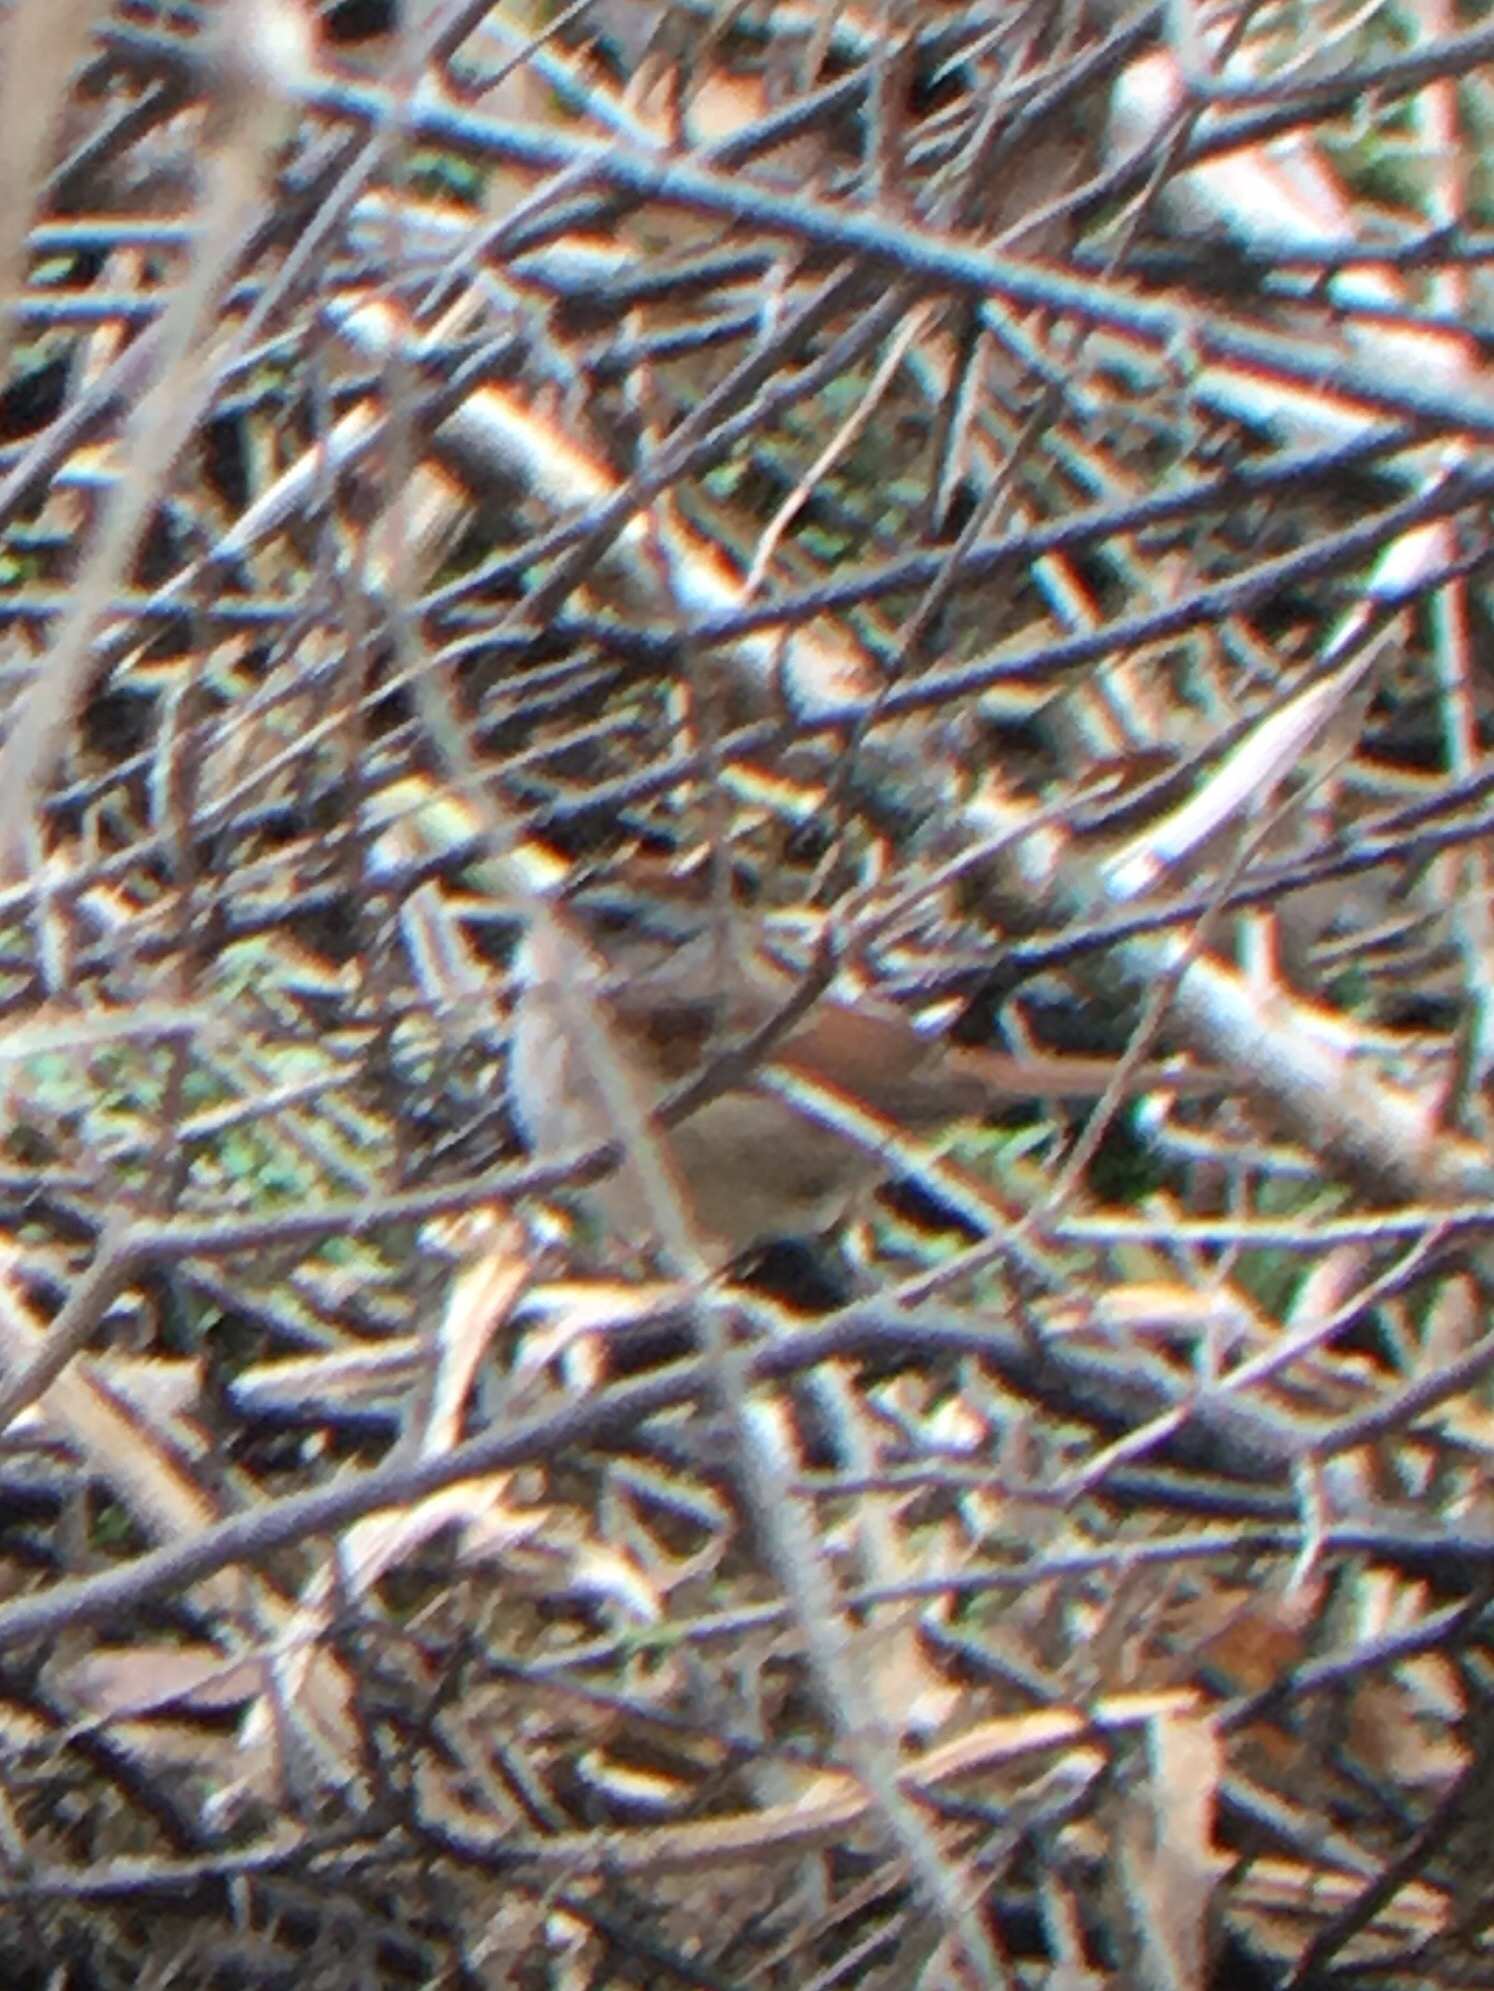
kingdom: Animalia
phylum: Chordata
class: Aves
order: Passeriformes
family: Passerellidae
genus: Melospiza
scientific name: Melospiza georgiana
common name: Swamp sparrow
